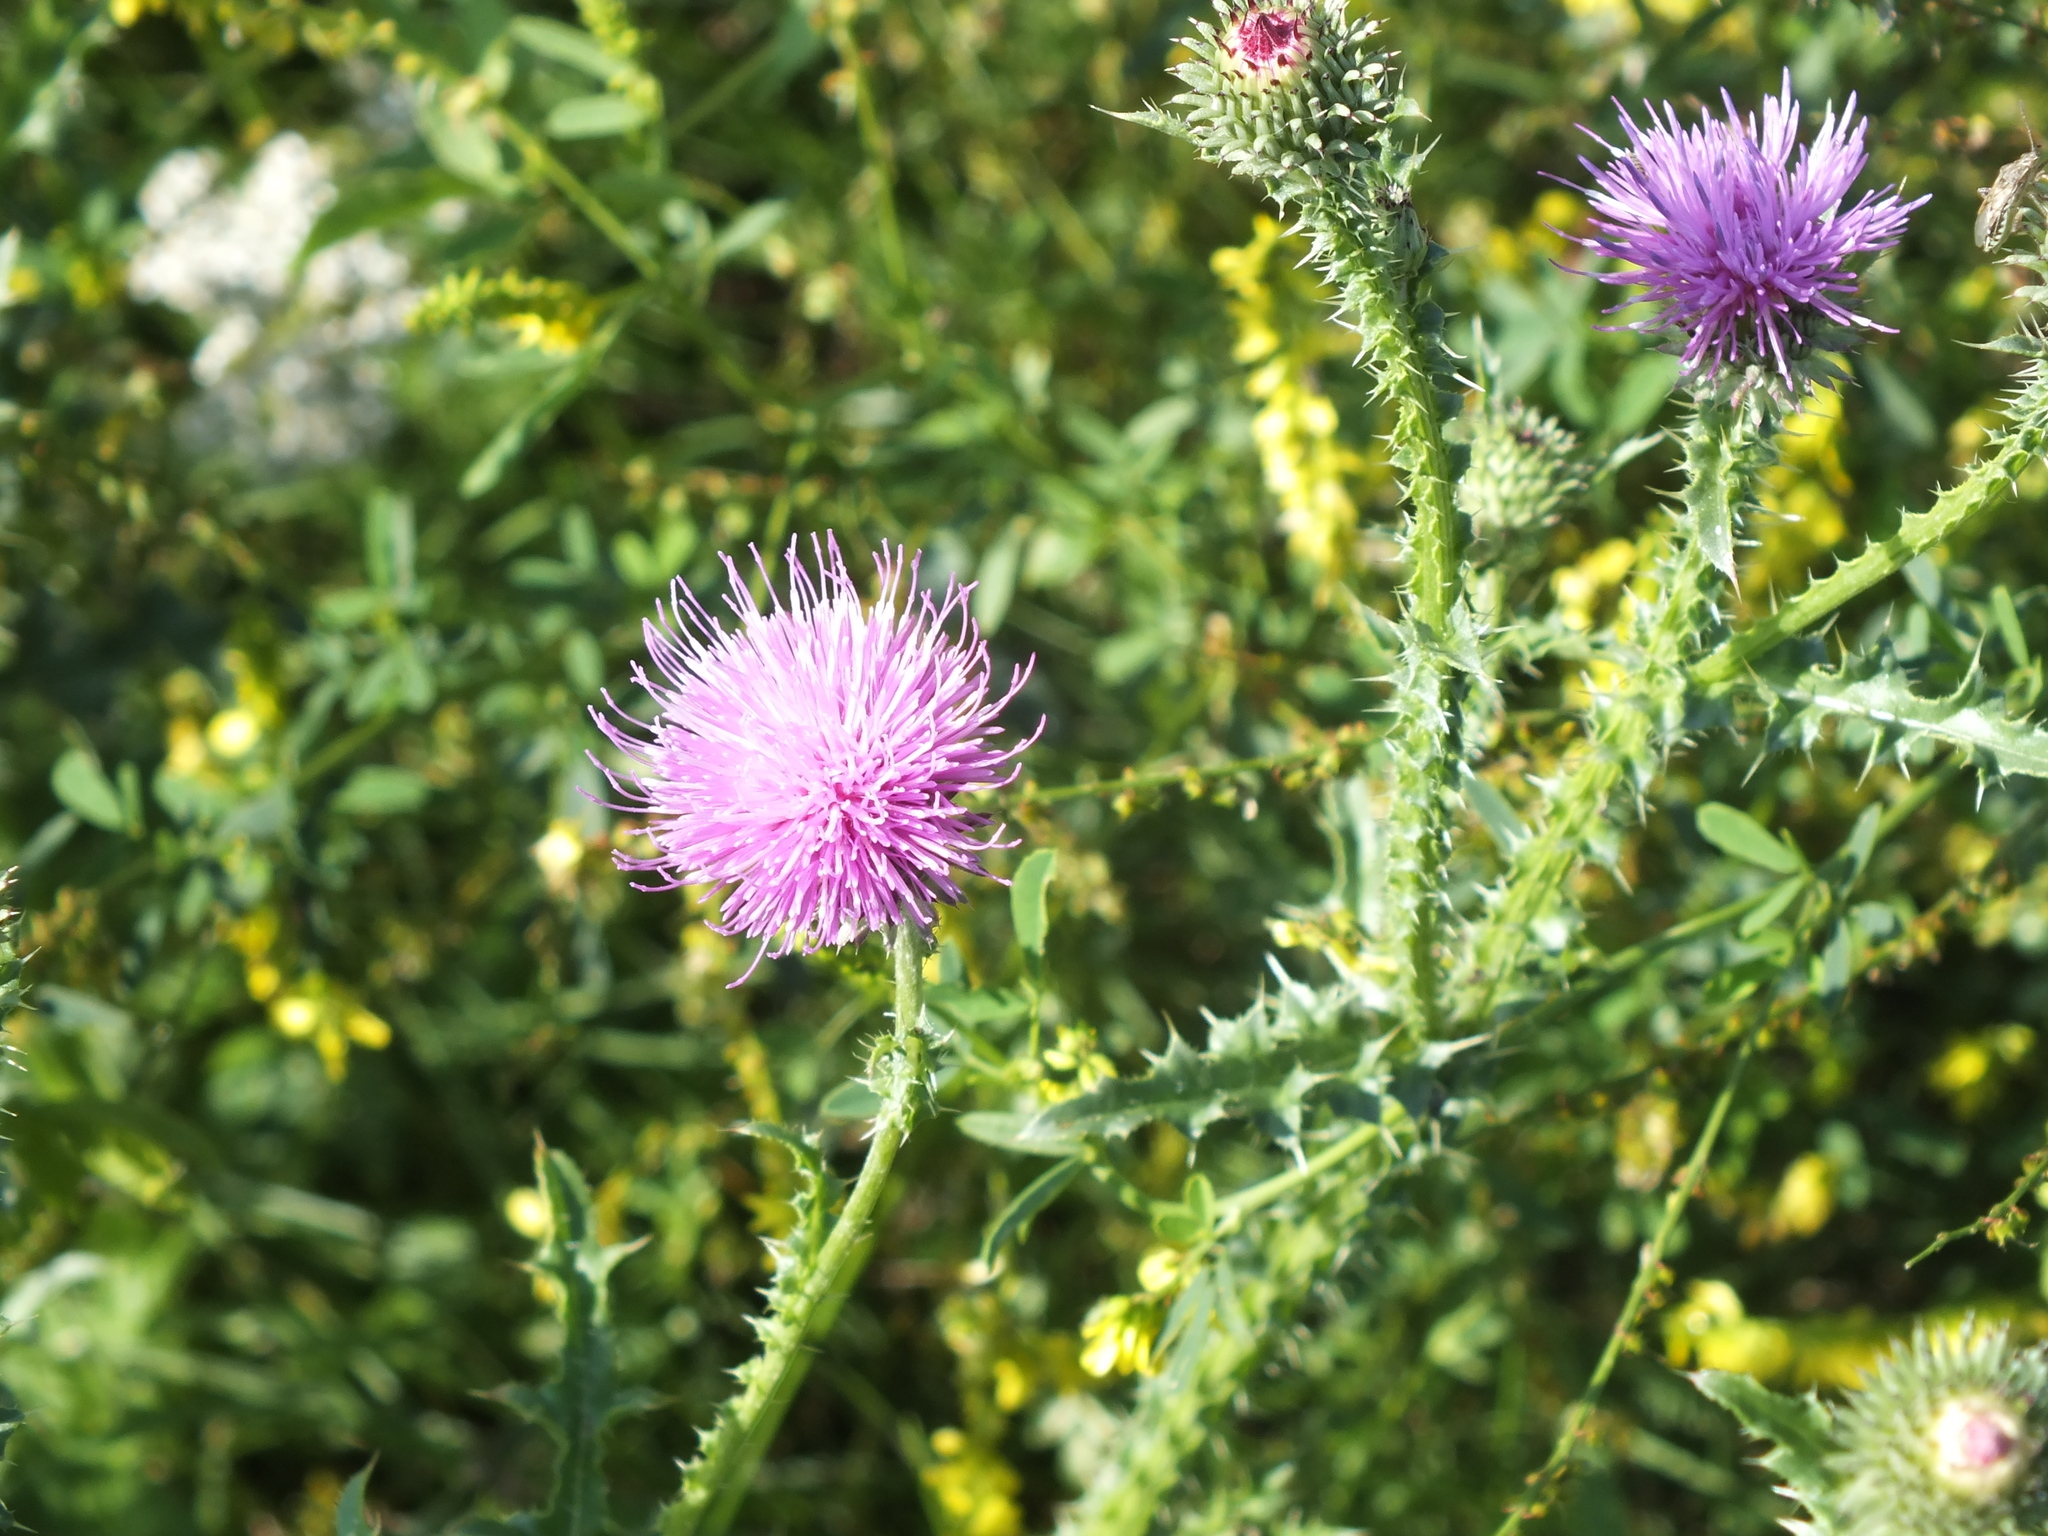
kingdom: Plantae
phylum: Tracheophyta
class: Magnoliopsida
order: Asterales
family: Asteraceae
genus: Carduus
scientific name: Carduus acanthoides
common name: Plumeless thistle
